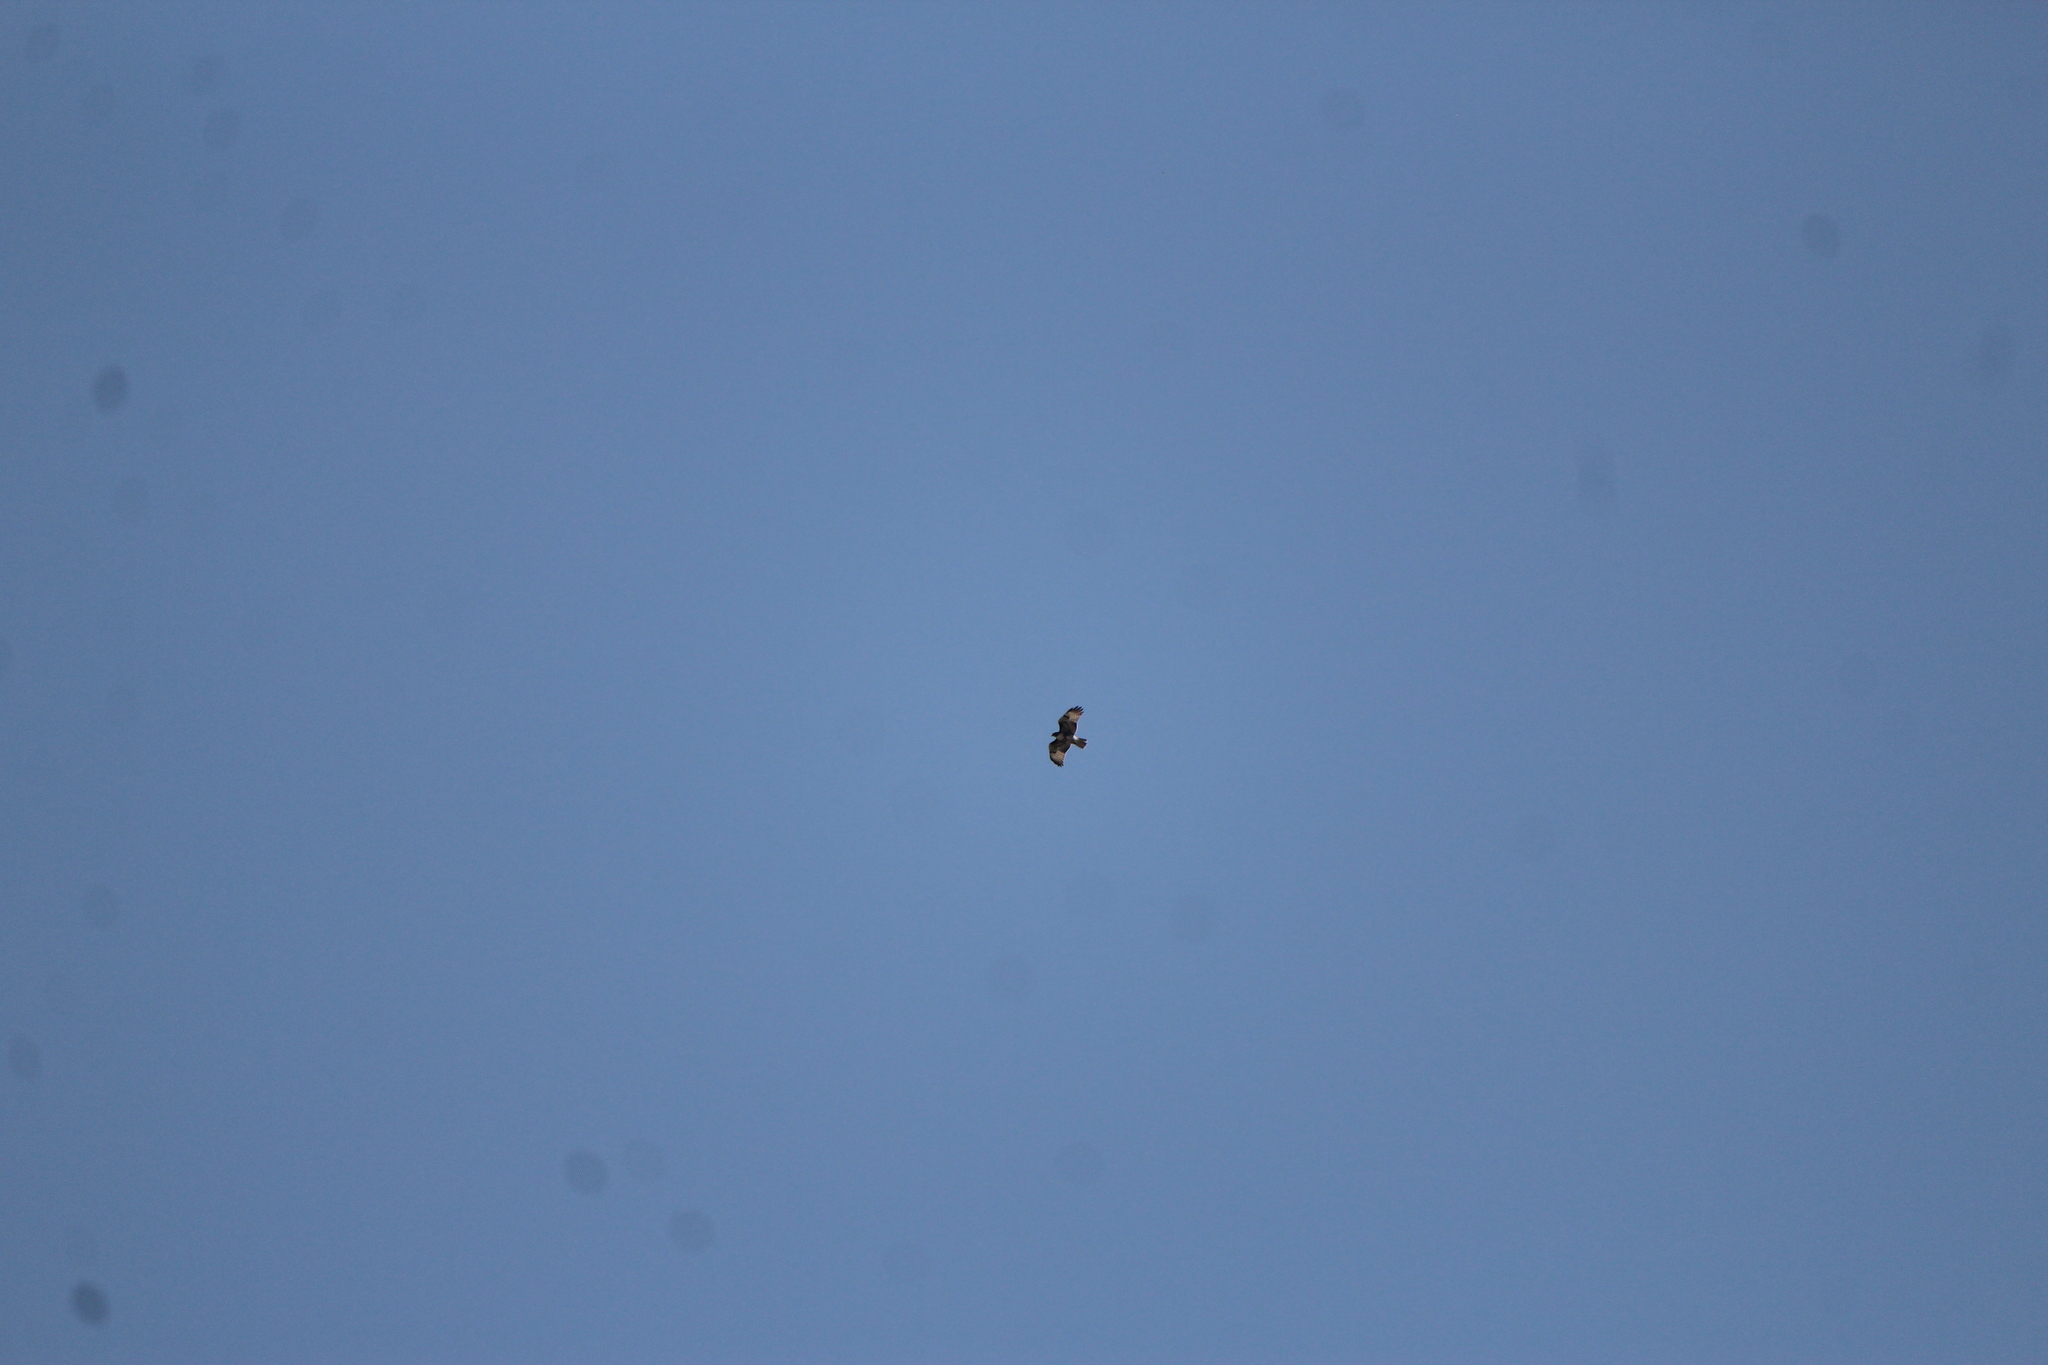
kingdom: Animalia
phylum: Chordata
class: Aves
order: Accipitriformes
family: Accipitridae
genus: Buteo
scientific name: Buteo jamaicensis
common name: Red-tailed hawk
